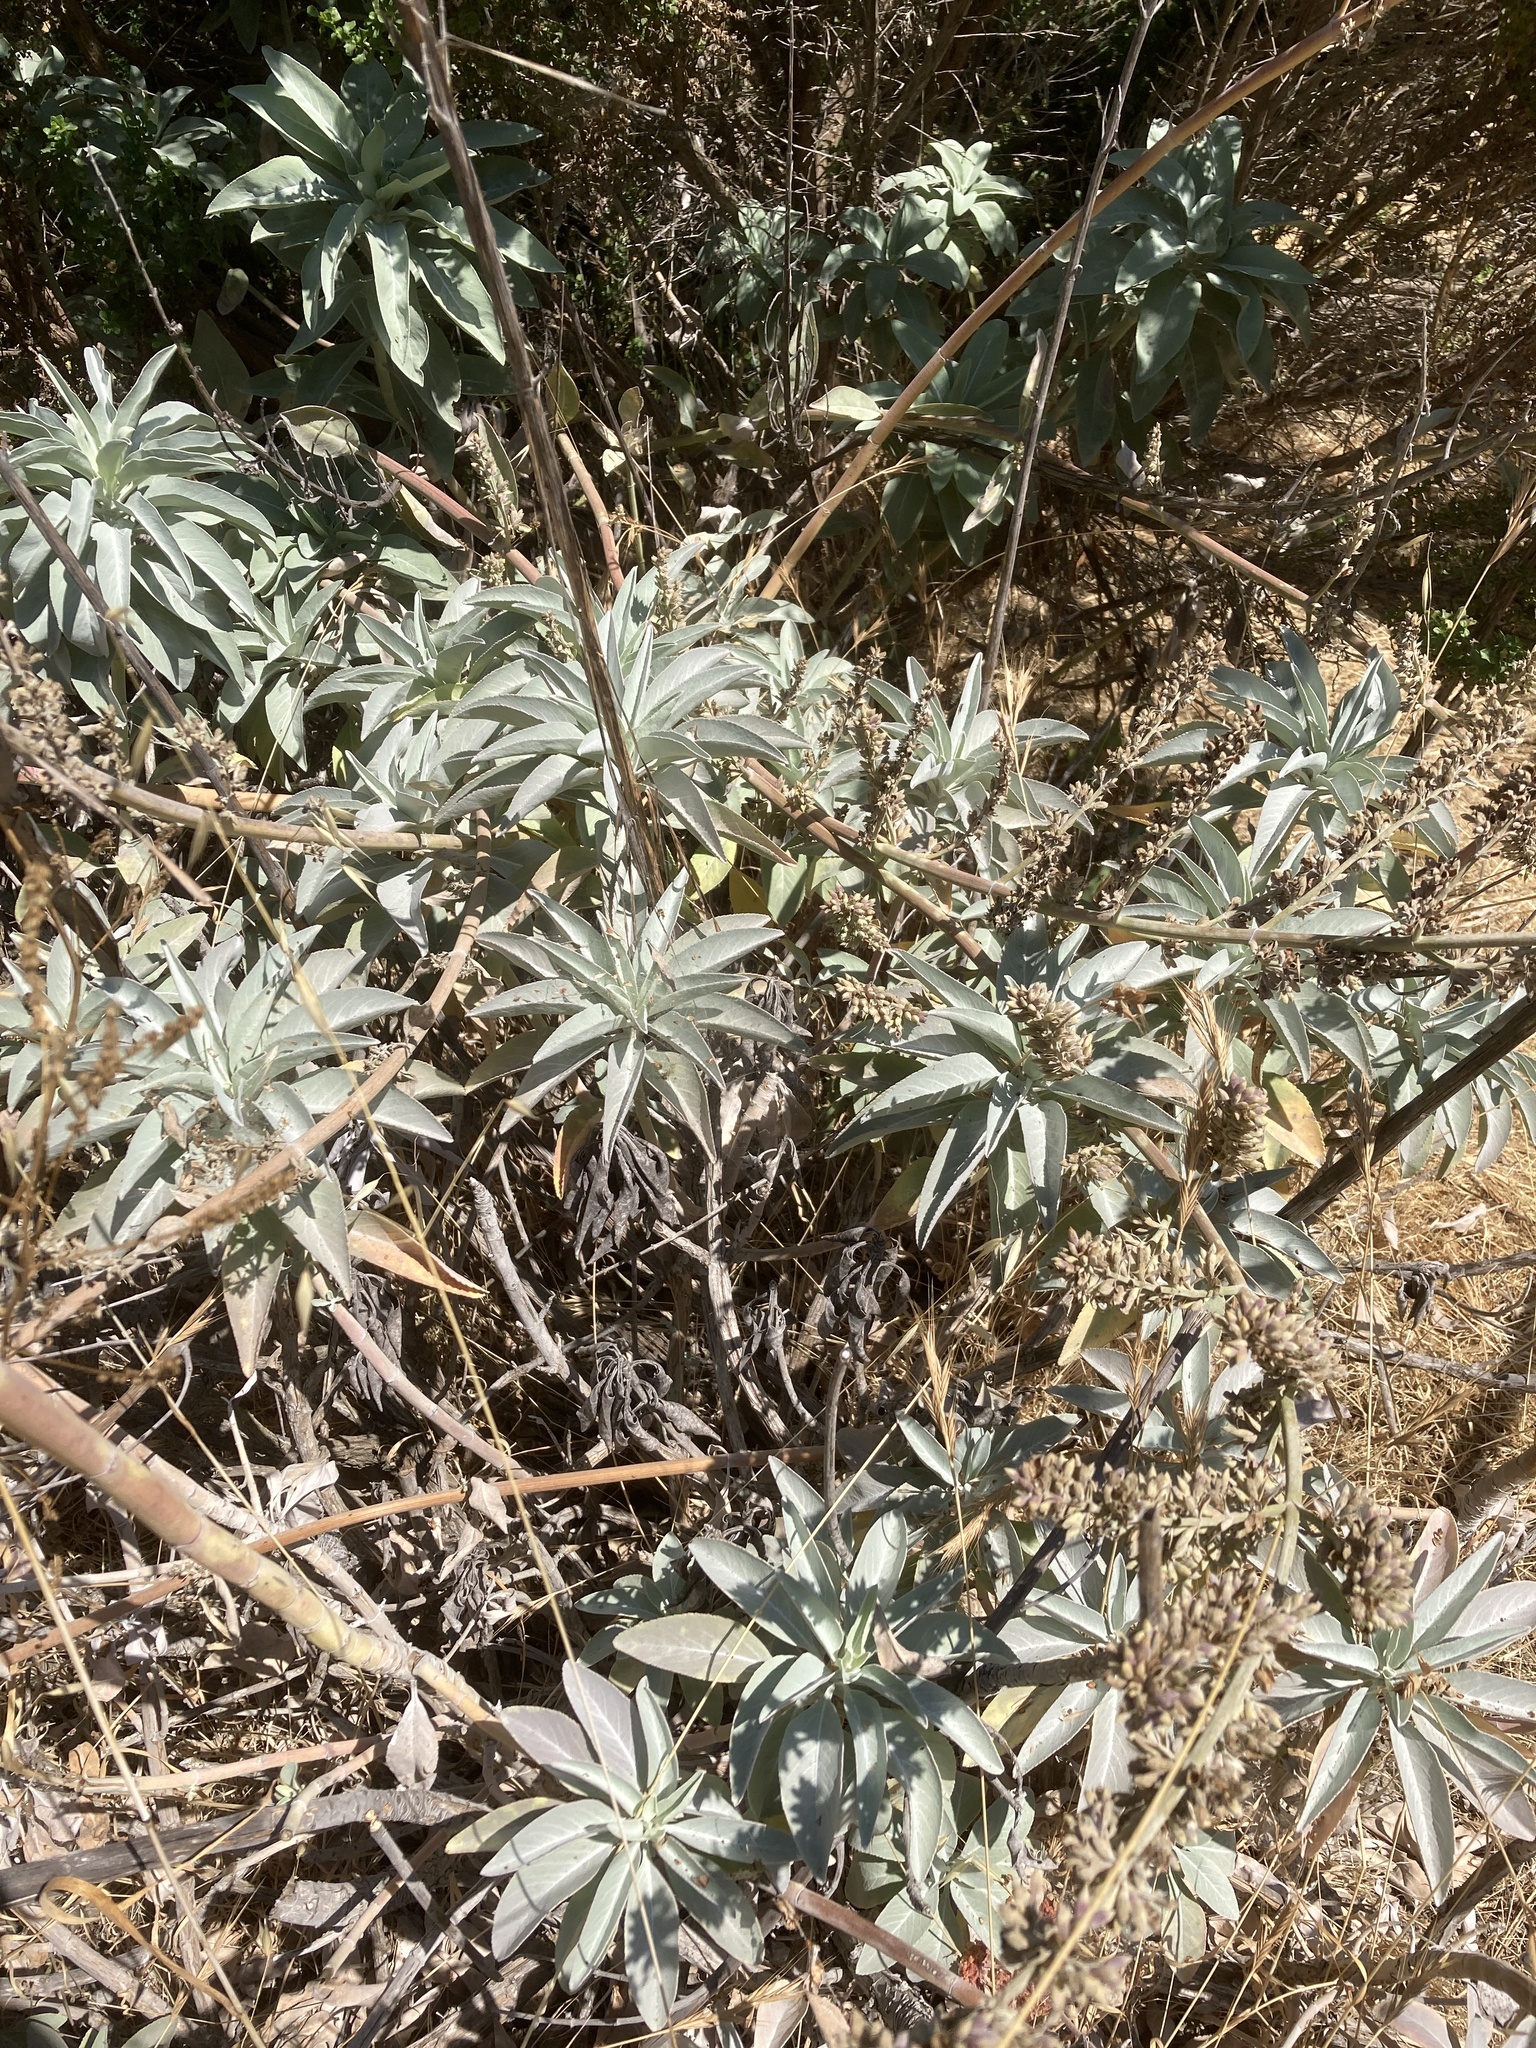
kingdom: Plantae
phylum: Tracheophyta
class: Magnoliopsida
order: Lamiales
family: Lamiaceae
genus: Salvia
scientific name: Salvia apiana
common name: White sage
